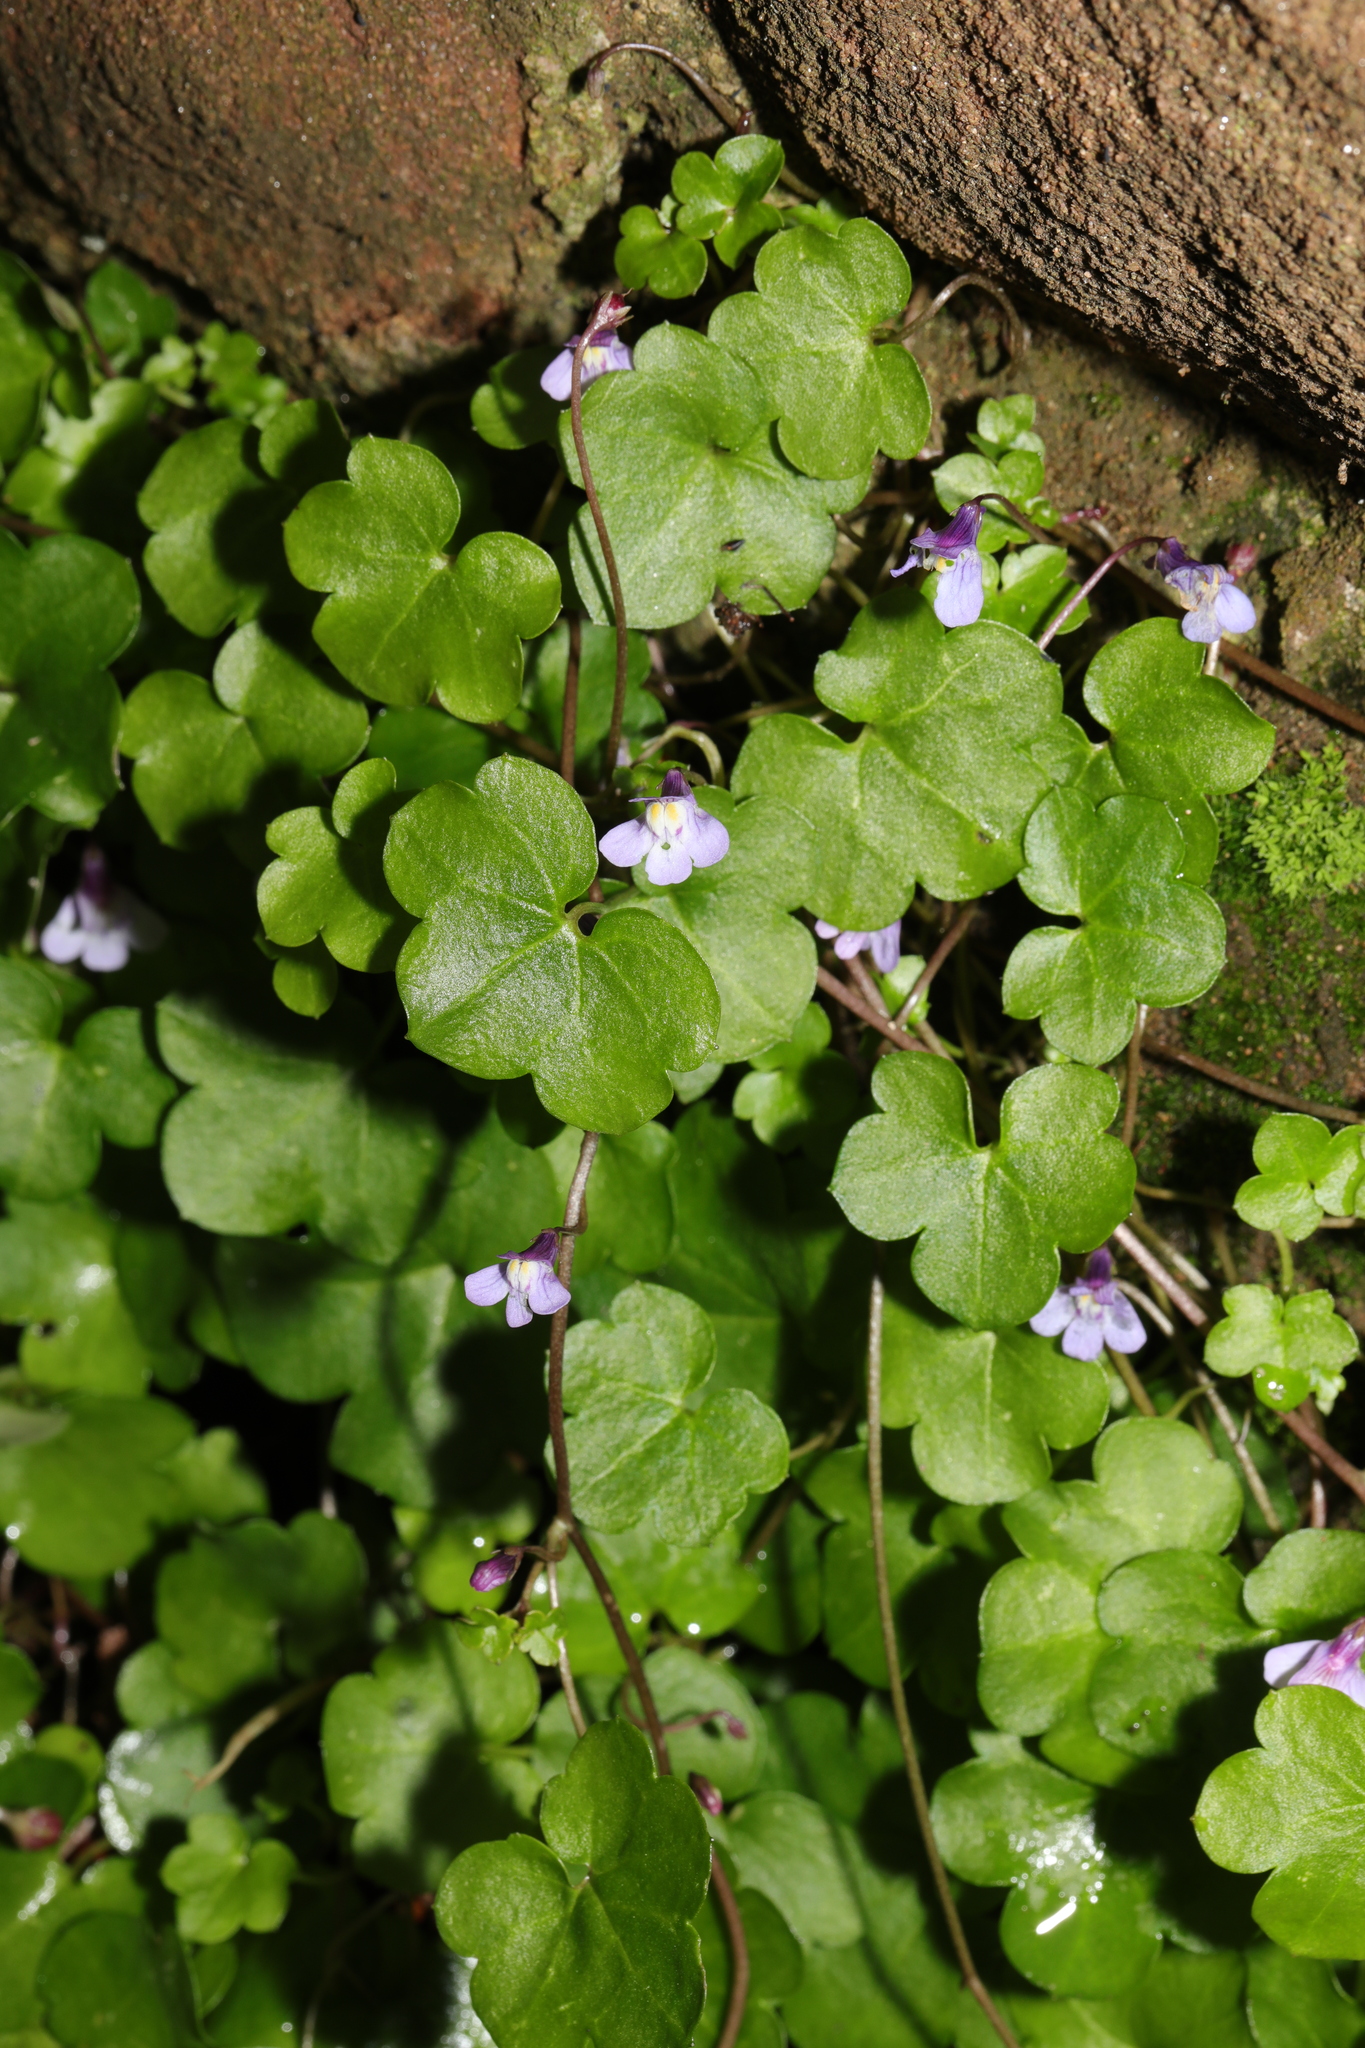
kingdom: Plantae
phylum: Tracheophyta
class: Magnoliopsida
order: Lamiales
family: Plantaginaceae
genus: Cymbalaria
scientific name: Cymbalaria muralis
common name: Ivy-leaved toadflax
